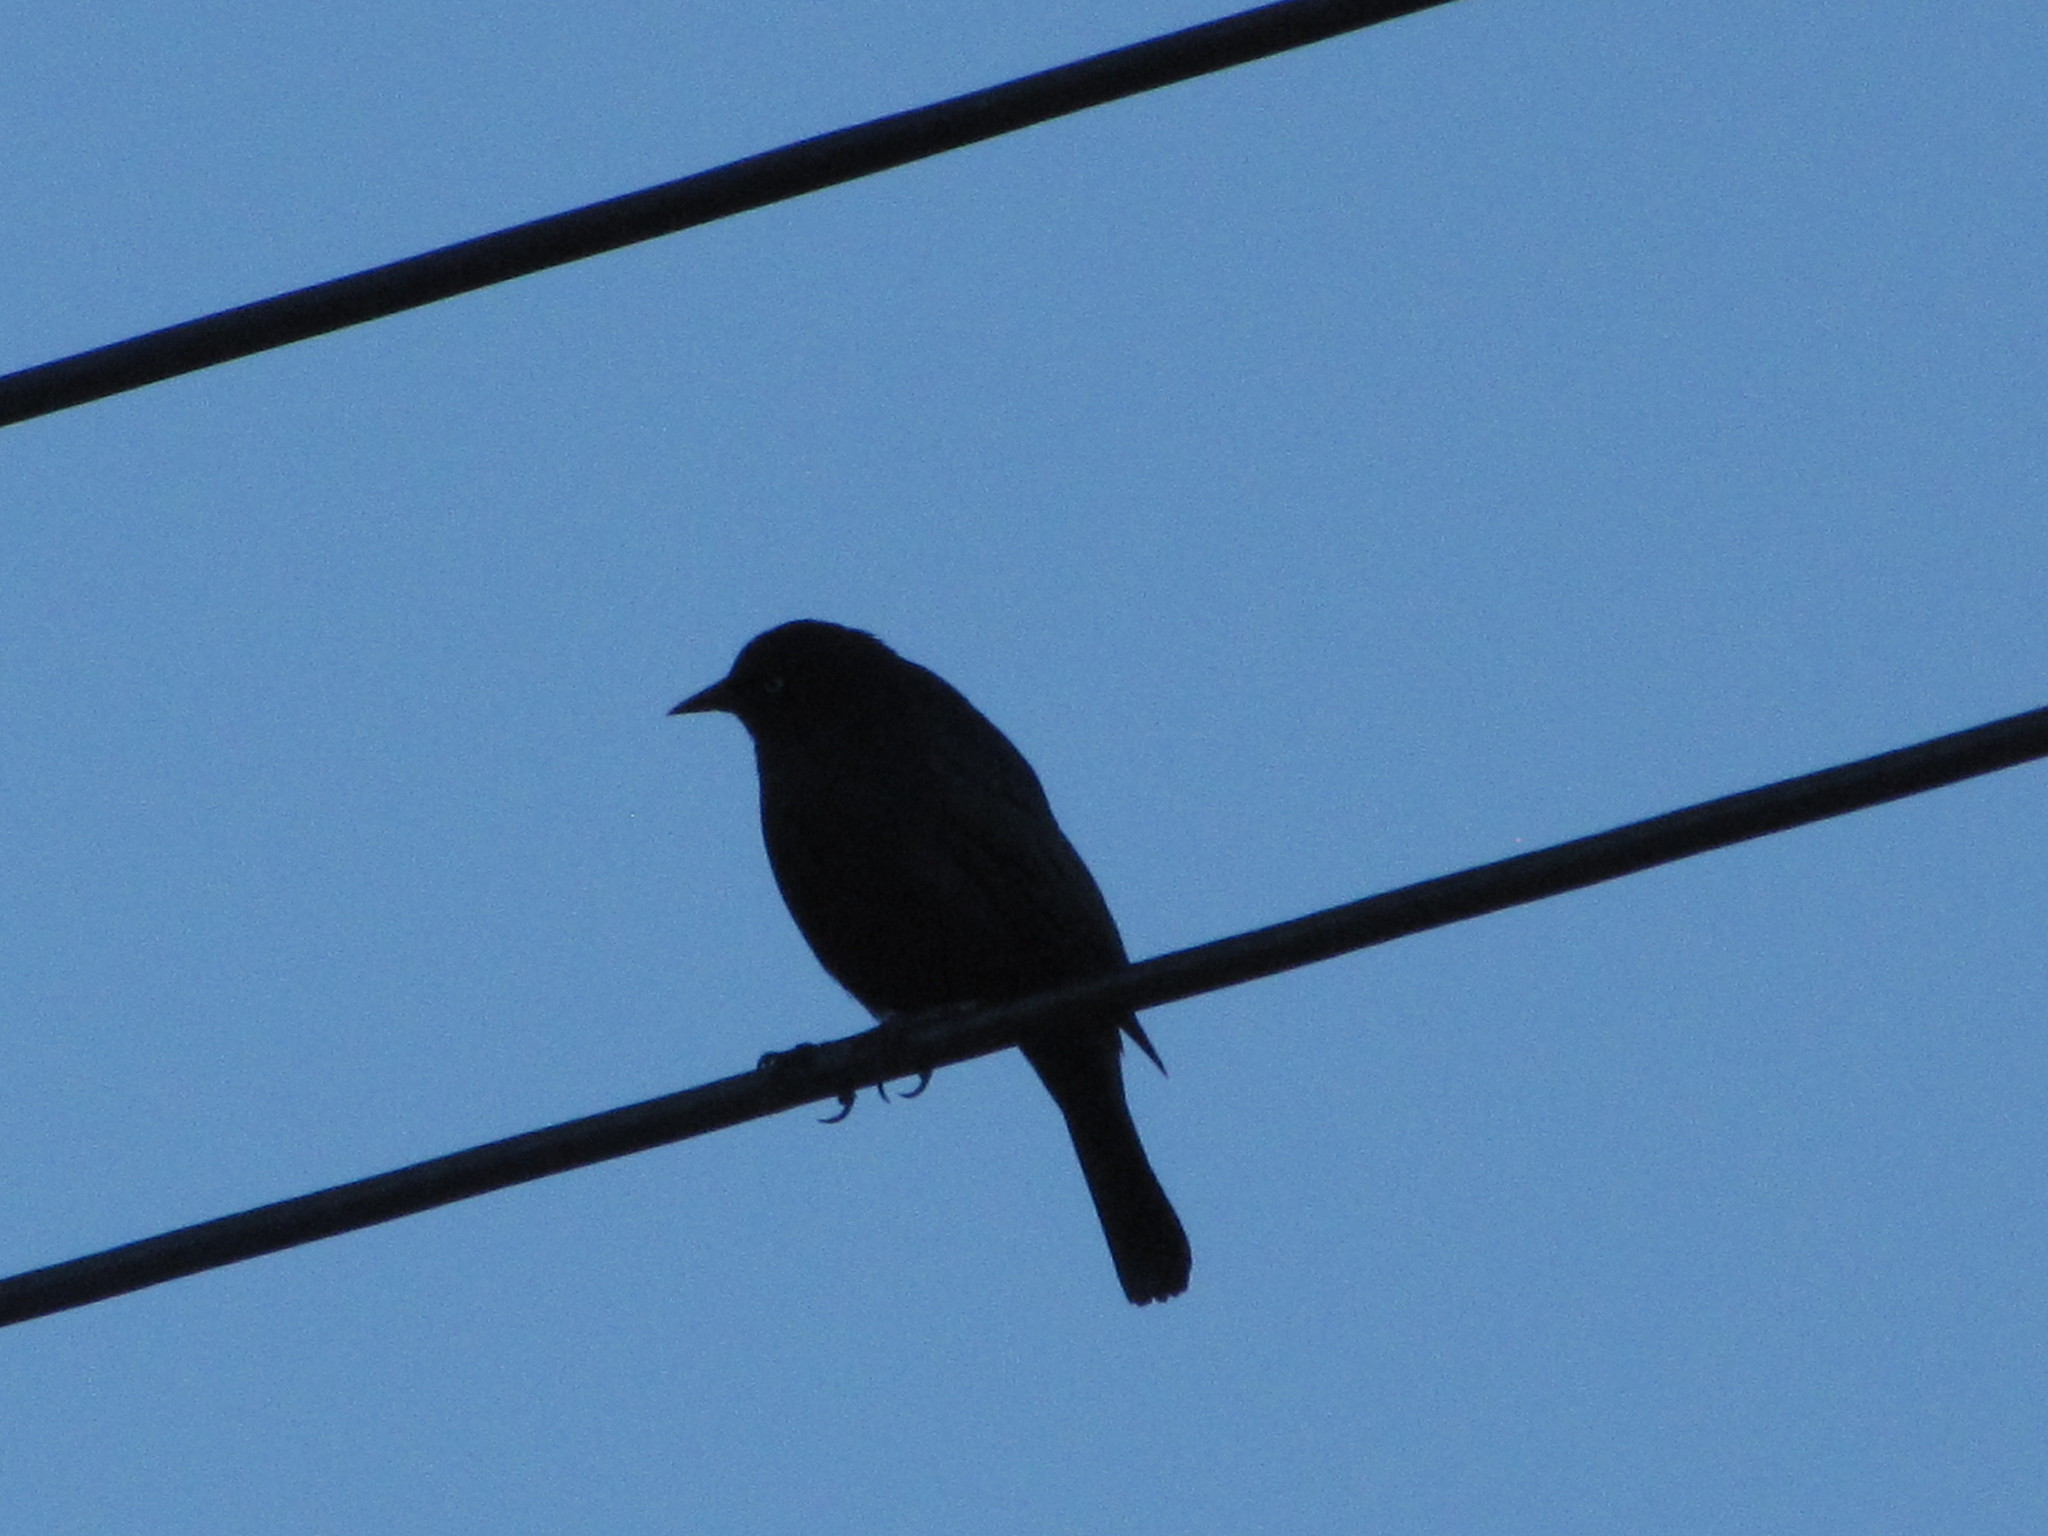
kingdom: Animalia
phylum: Chordata
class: Aves
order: Passeriformes
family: Icteridae
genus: Euphagus
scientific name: Euphagus cyanocephalus
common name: Brewer's blackbird
